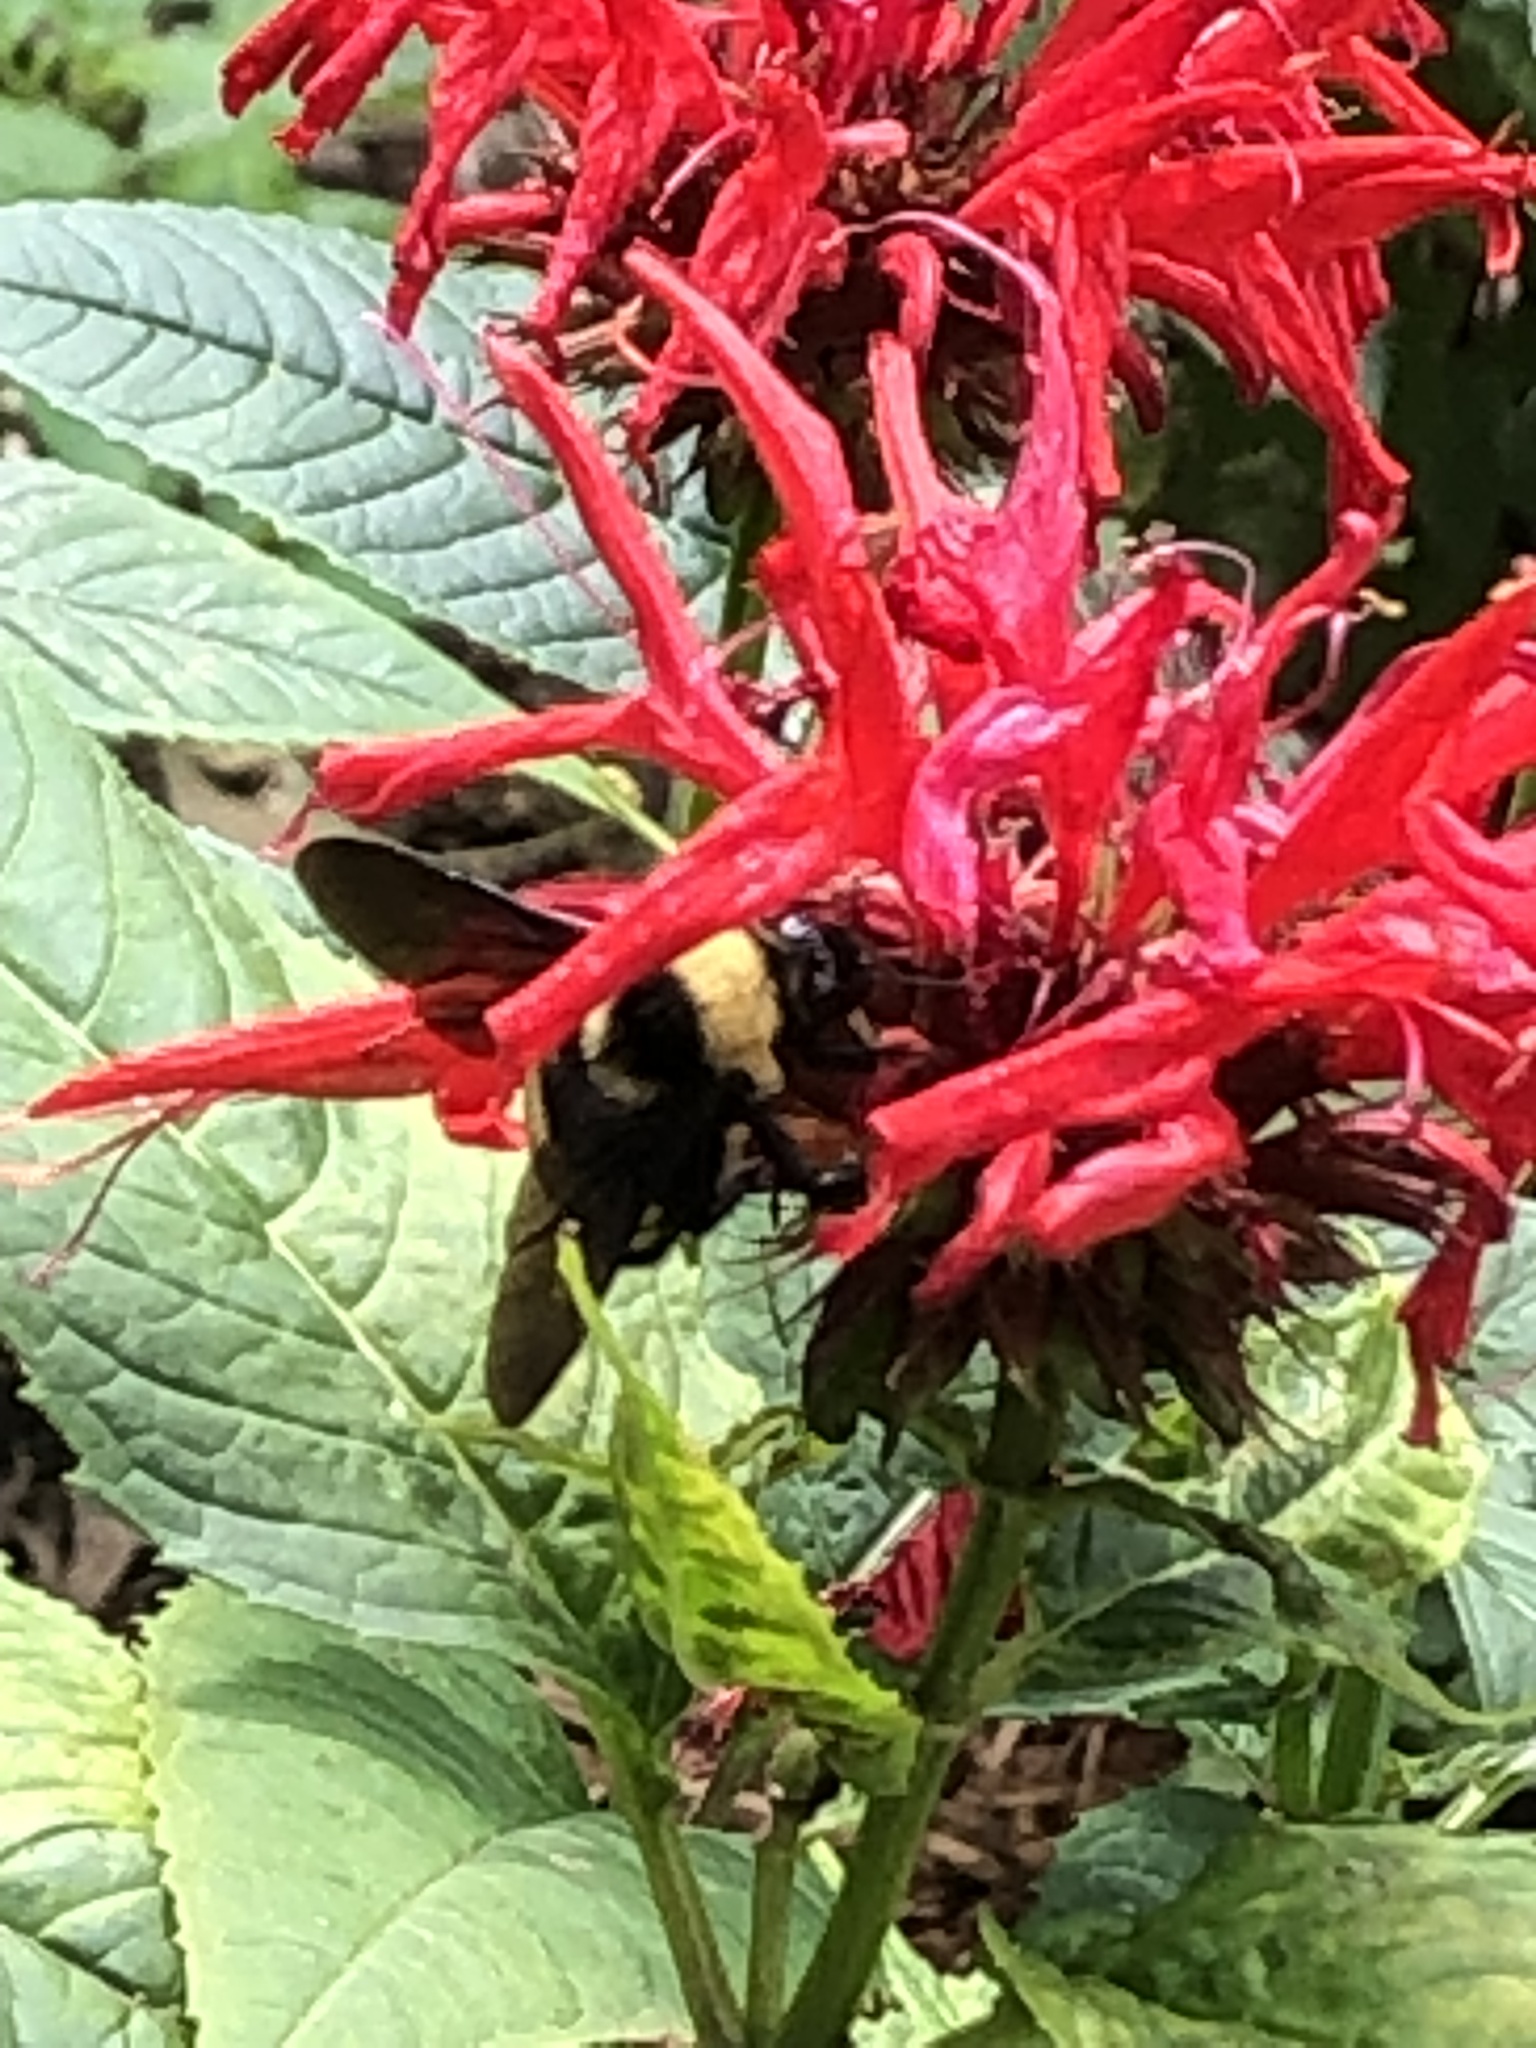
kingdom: Animalia
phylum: Arthropoda
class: Insecta
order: Hymenoptera
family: Apidae
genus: Bombus
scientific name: Bombus auricomus
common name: Black and gold bumble bee
